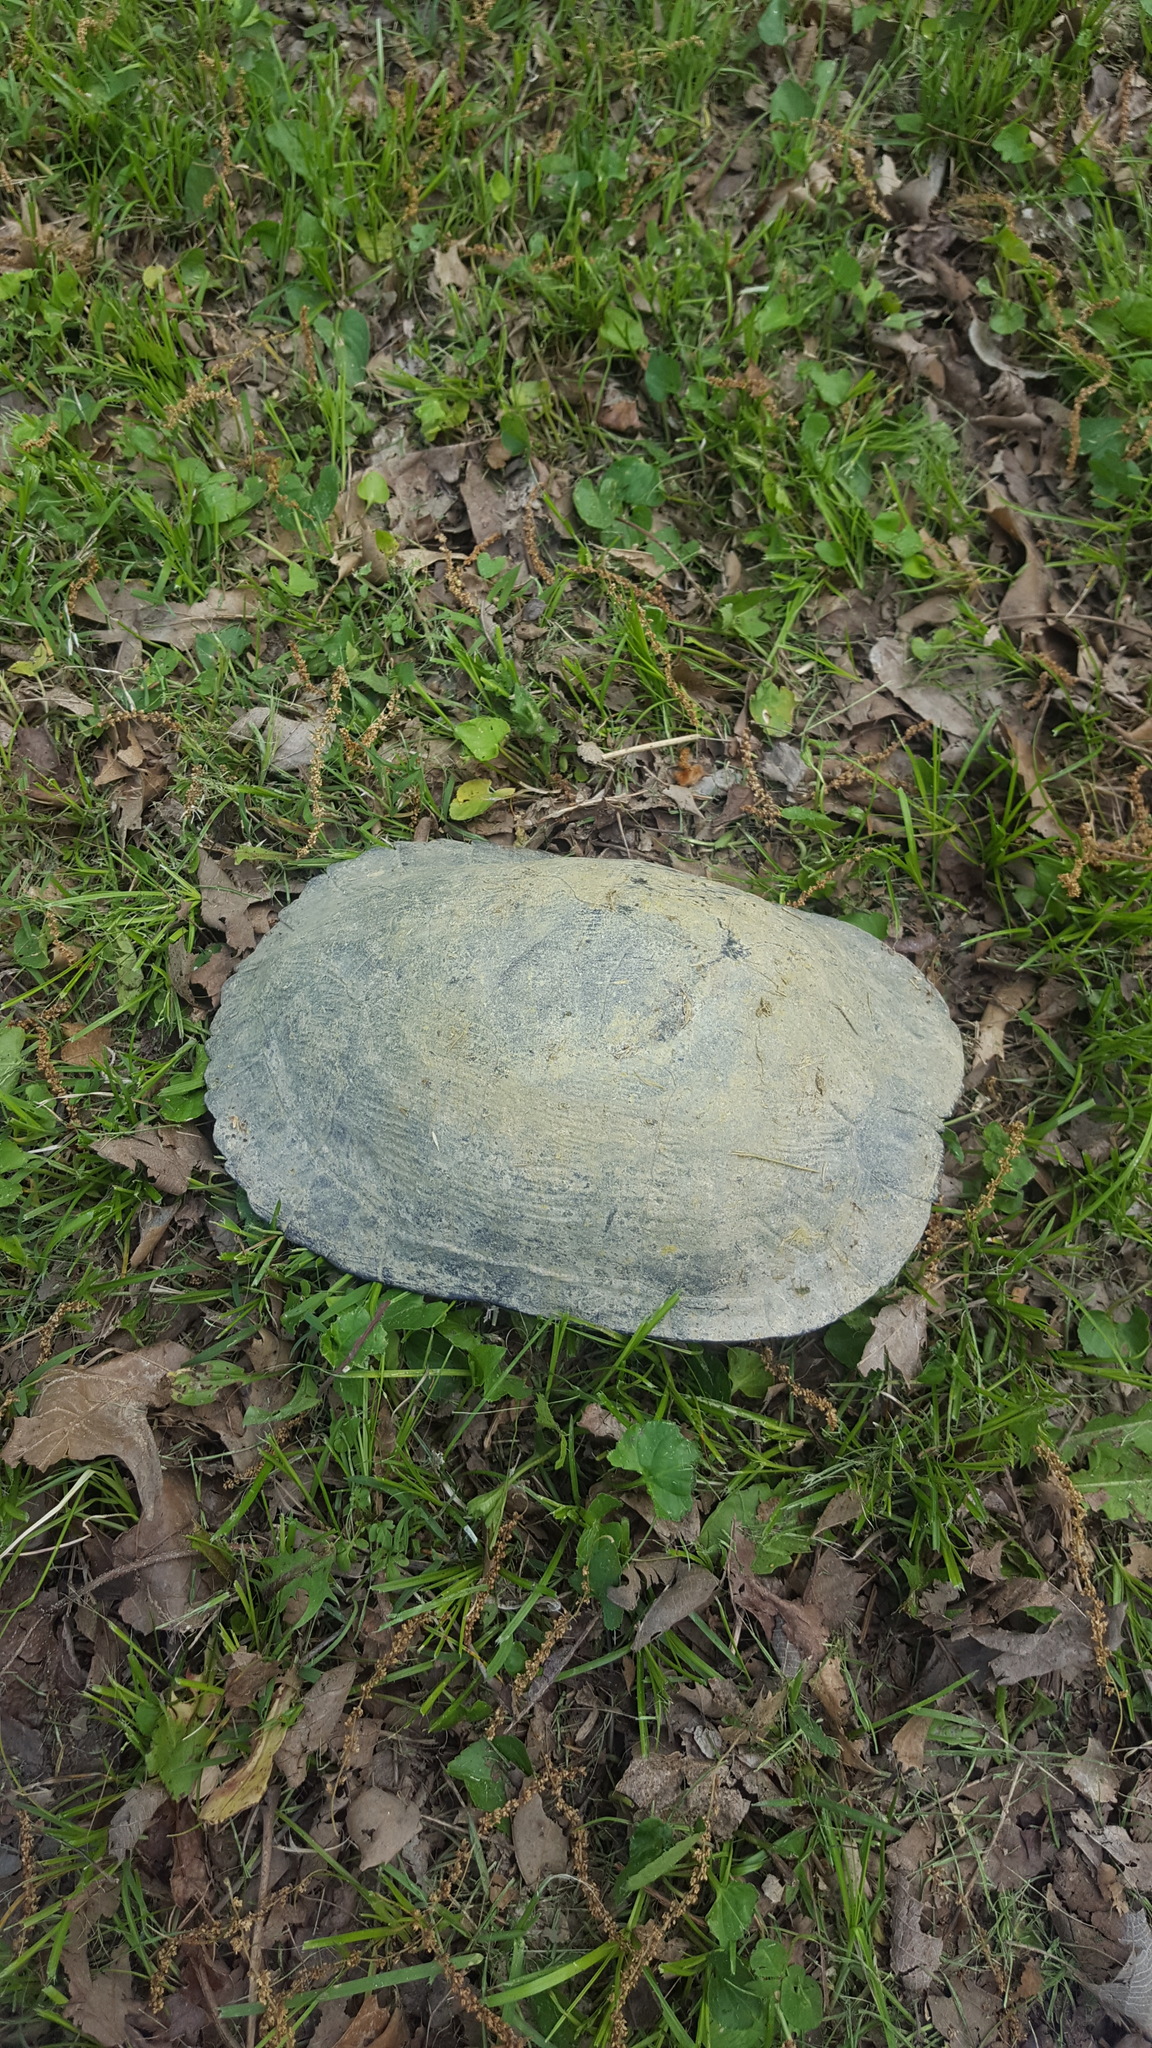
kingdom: Animalia
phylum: Chordata
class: Testudines
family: Emydidae
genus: Trachemys
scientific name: Trachemys scripta
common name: Slider
